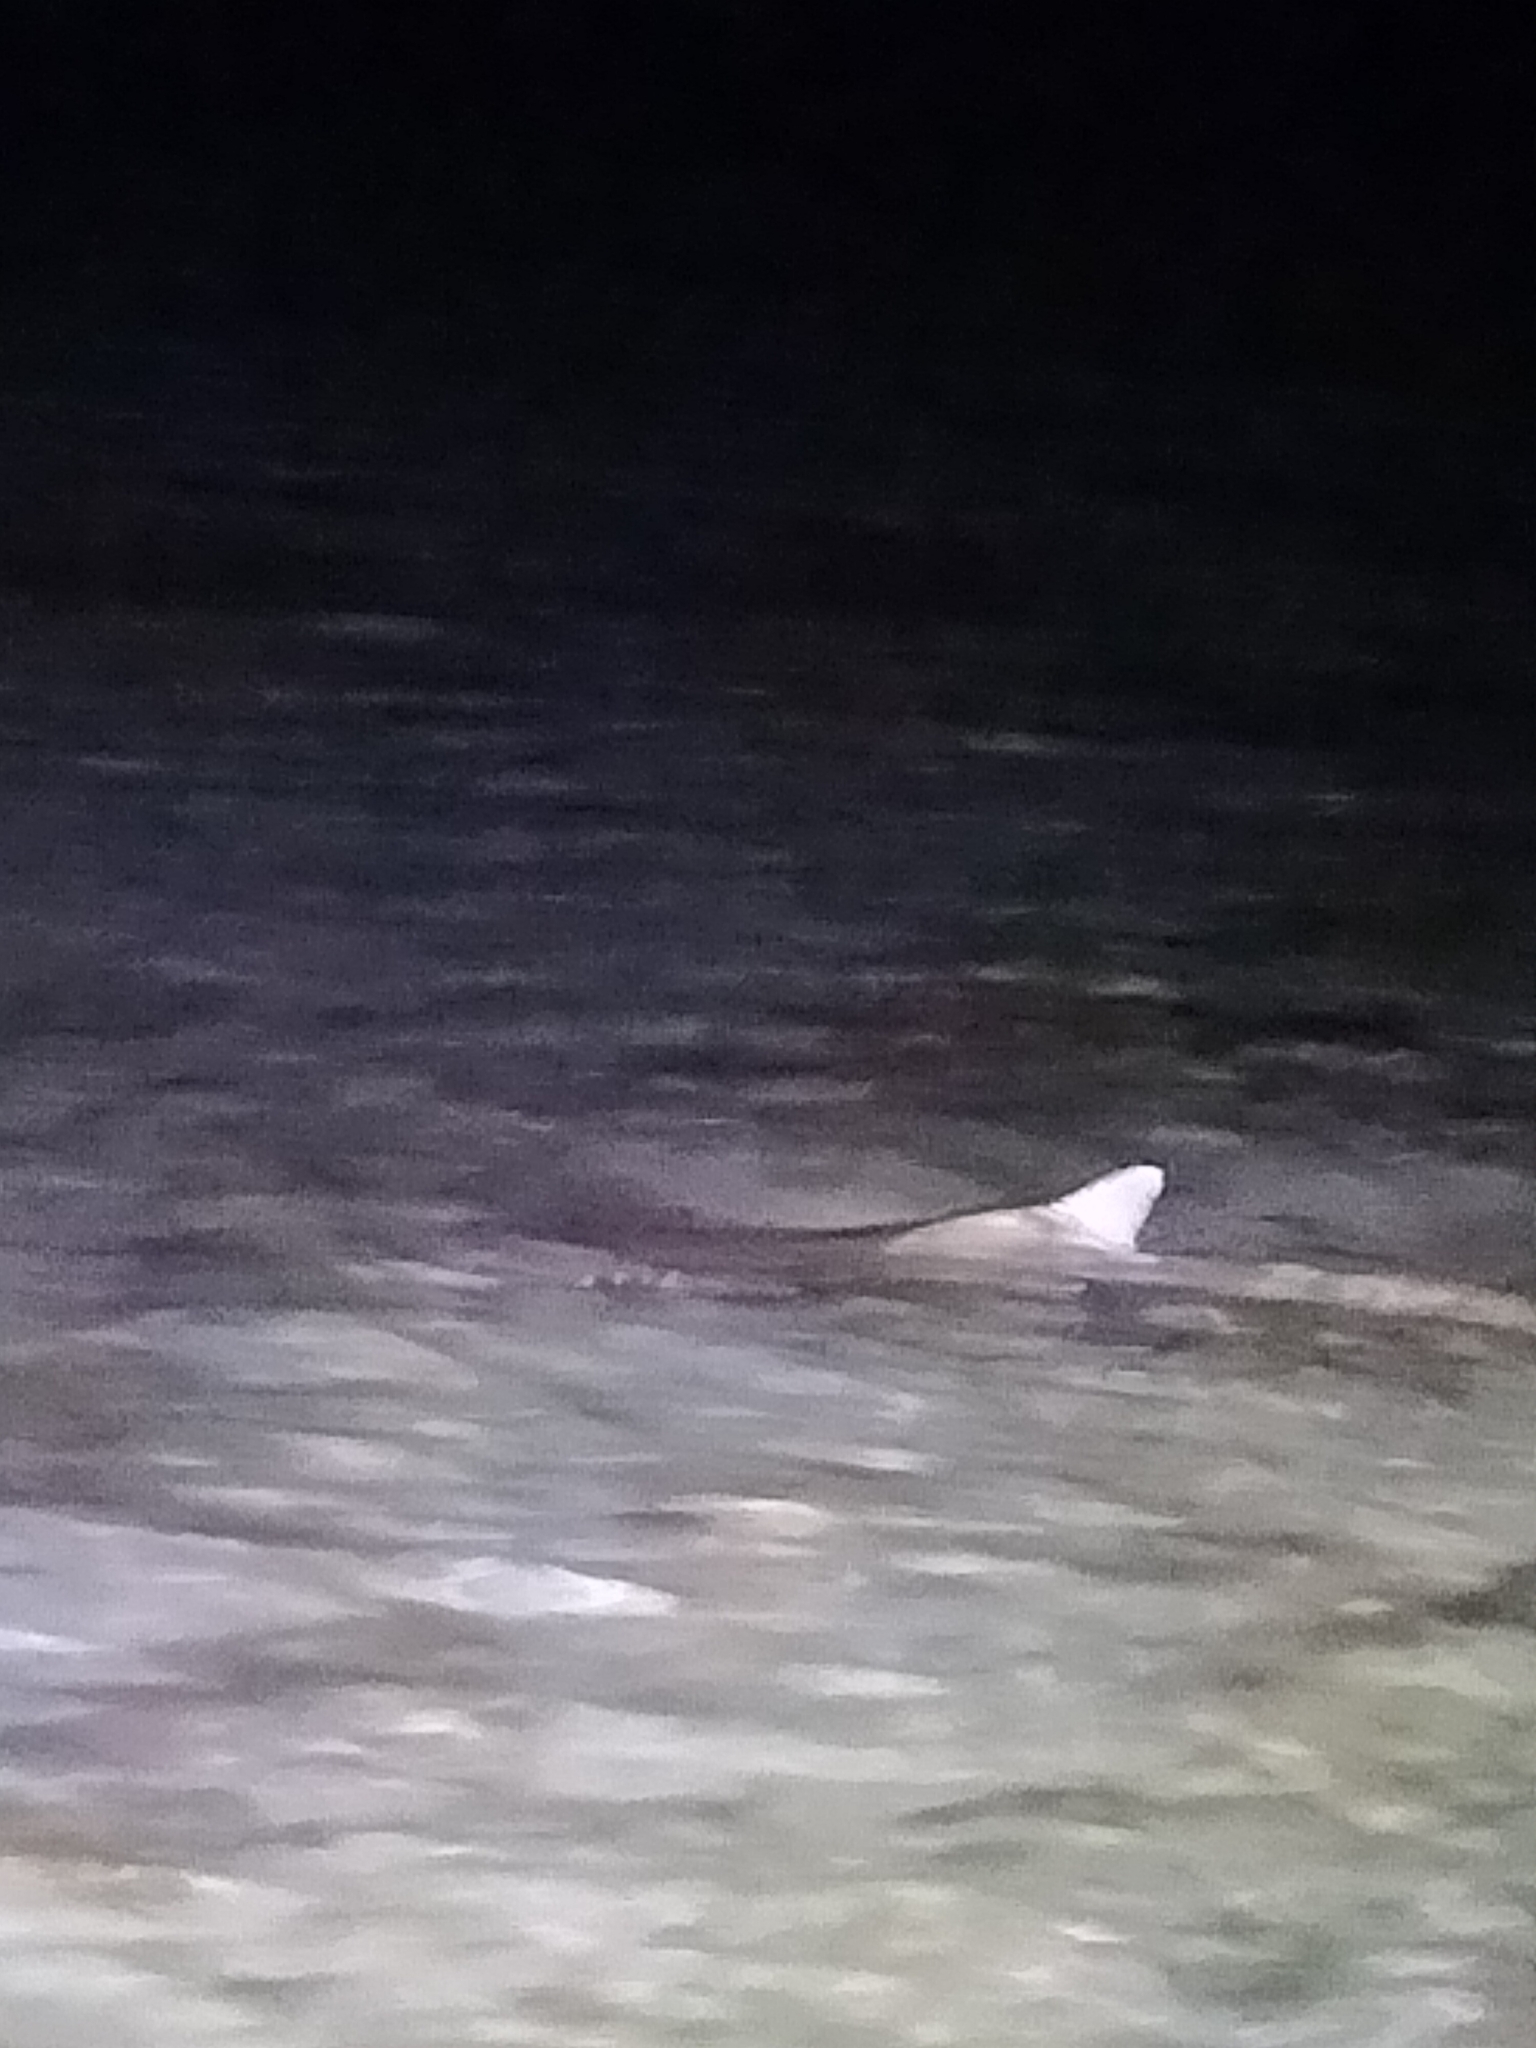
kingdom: Animalia
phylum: Chordata
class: Elasmobranchii
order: Orectolobiformes
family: Hemiscylliidae
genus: Chiloscyllium
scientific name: Chiloscyllium punctatum
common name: Brown-banded catshark
